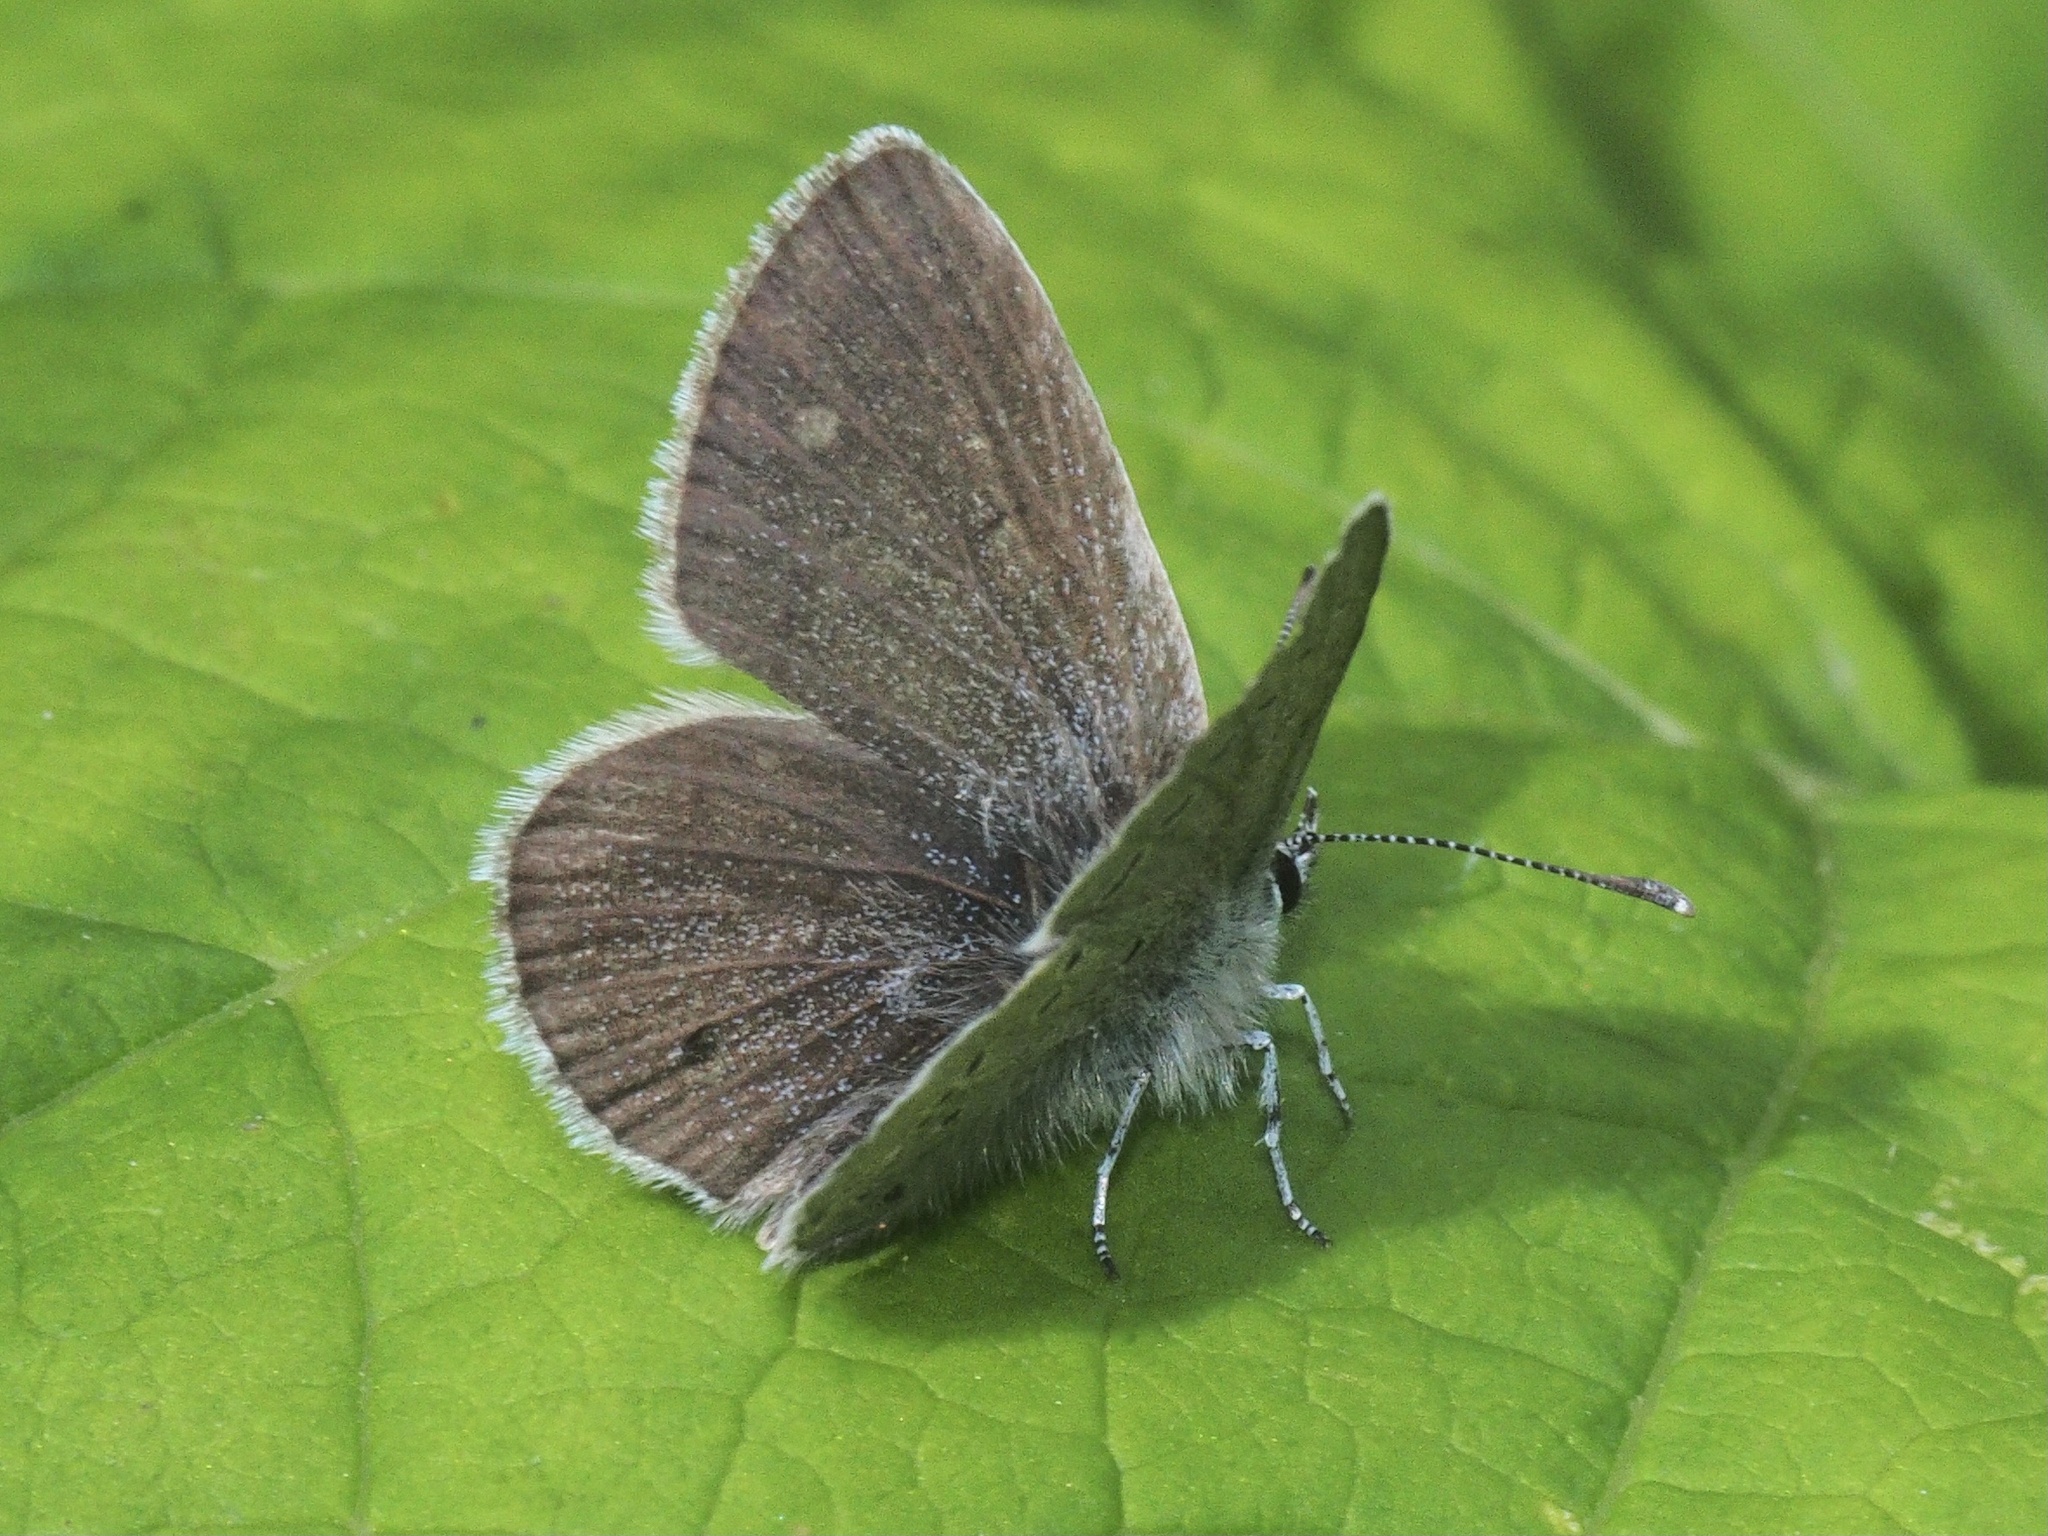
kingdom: Animalia
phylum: Arthropoda
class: Insecta
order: Lepidoptera
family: Lycaenidae
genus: Cupido
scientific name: Cupido minimus
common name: Small blue
